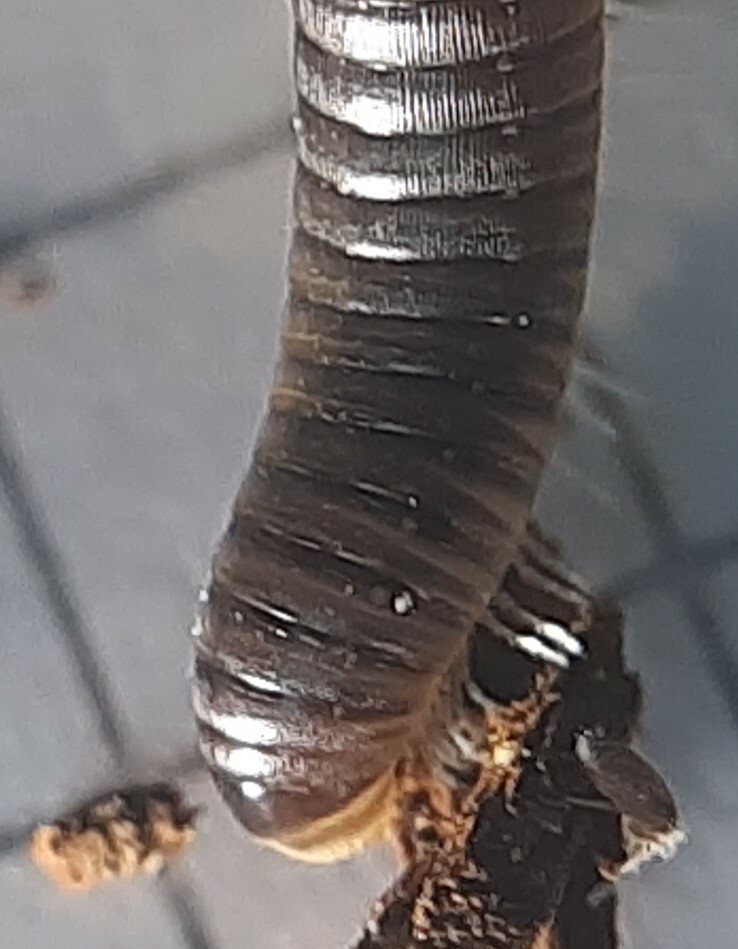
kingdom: Animalia
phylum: Arthropoda
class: Diplopoda
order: Julida
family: Julidae
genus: Cylindroiulus
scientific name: Cylindroiulus latzeli
